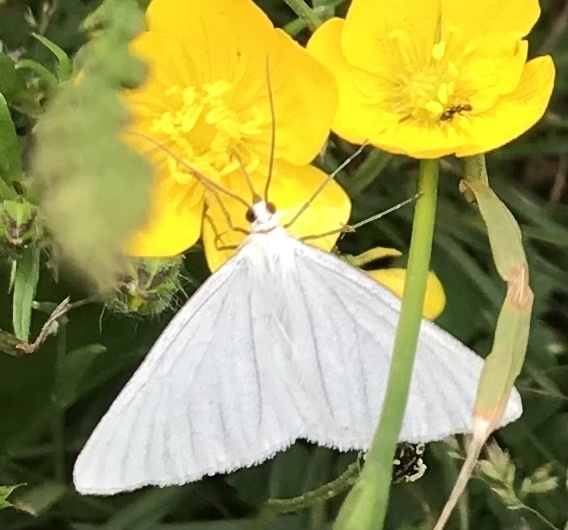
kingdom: Animalia
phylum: Arthropoda
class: Insecta
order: Lepidoptera
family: Geometridae
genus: Siona
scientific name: Siona lineata
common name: Black-veined moth
